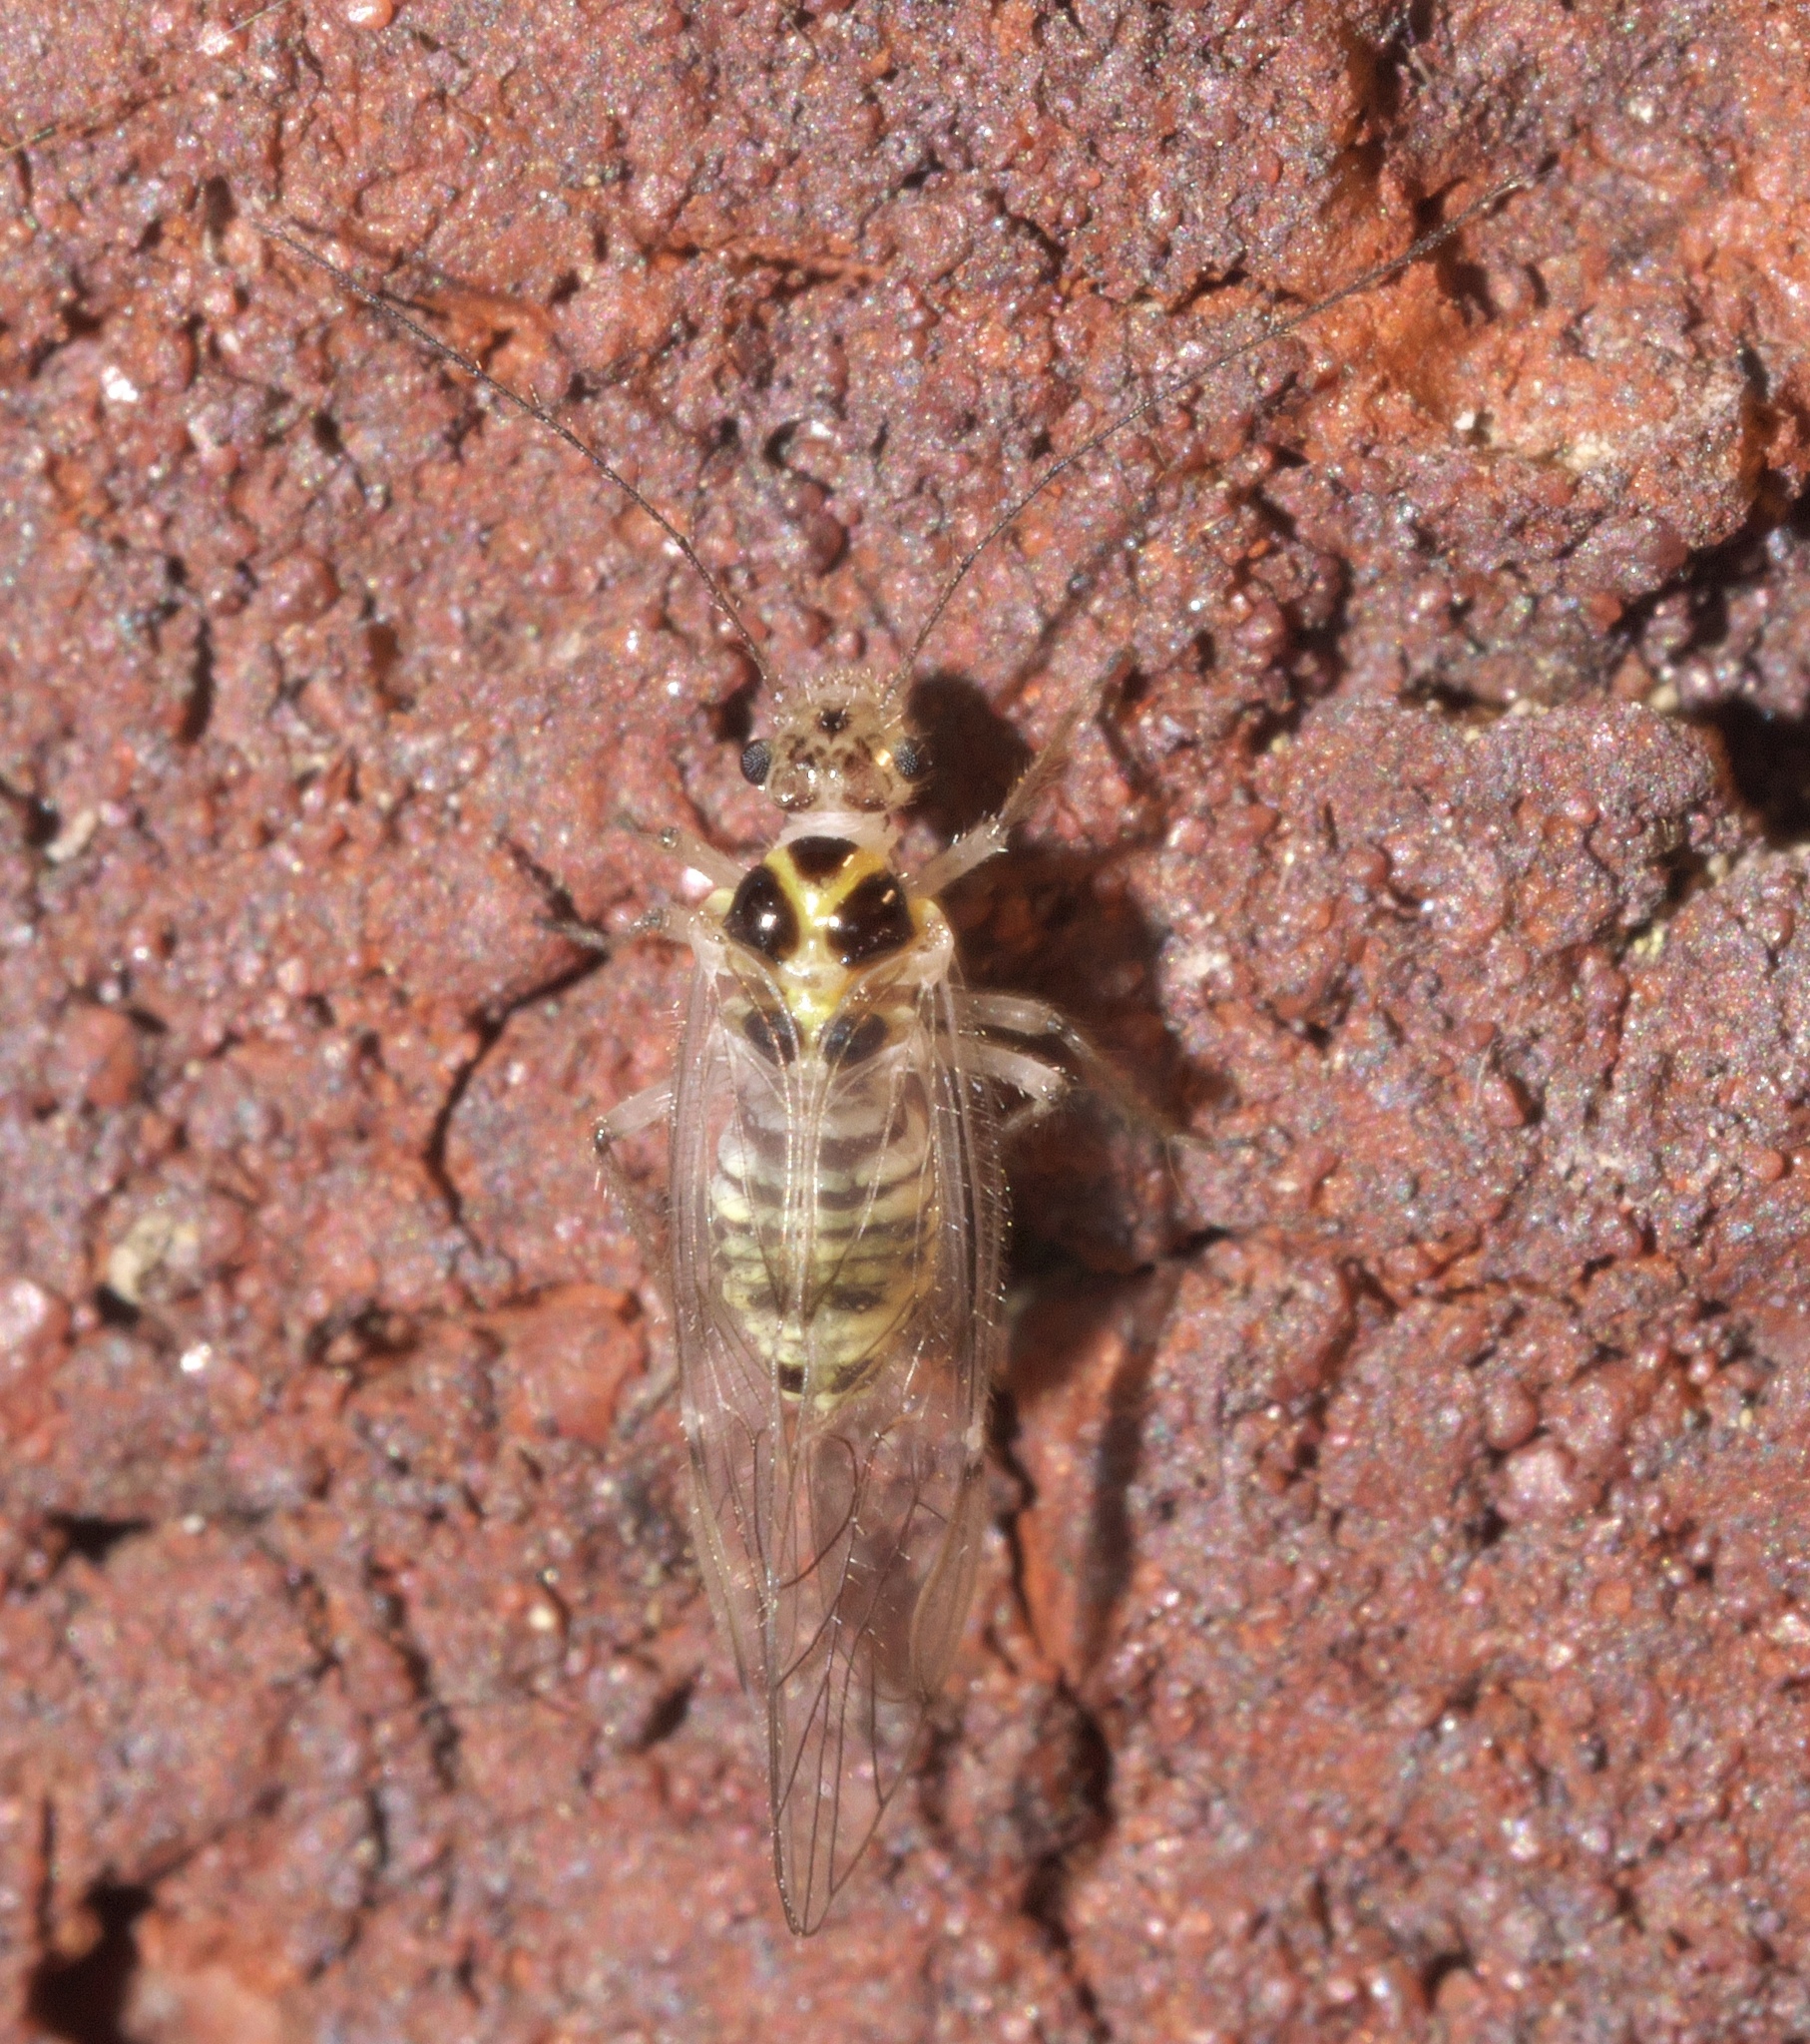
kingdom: Animalia
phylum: Arthropoda
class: Insecta
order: Psocodea
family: Dasydemellidae
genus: Teliapsocus
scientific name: Teliapsocus conterminus
